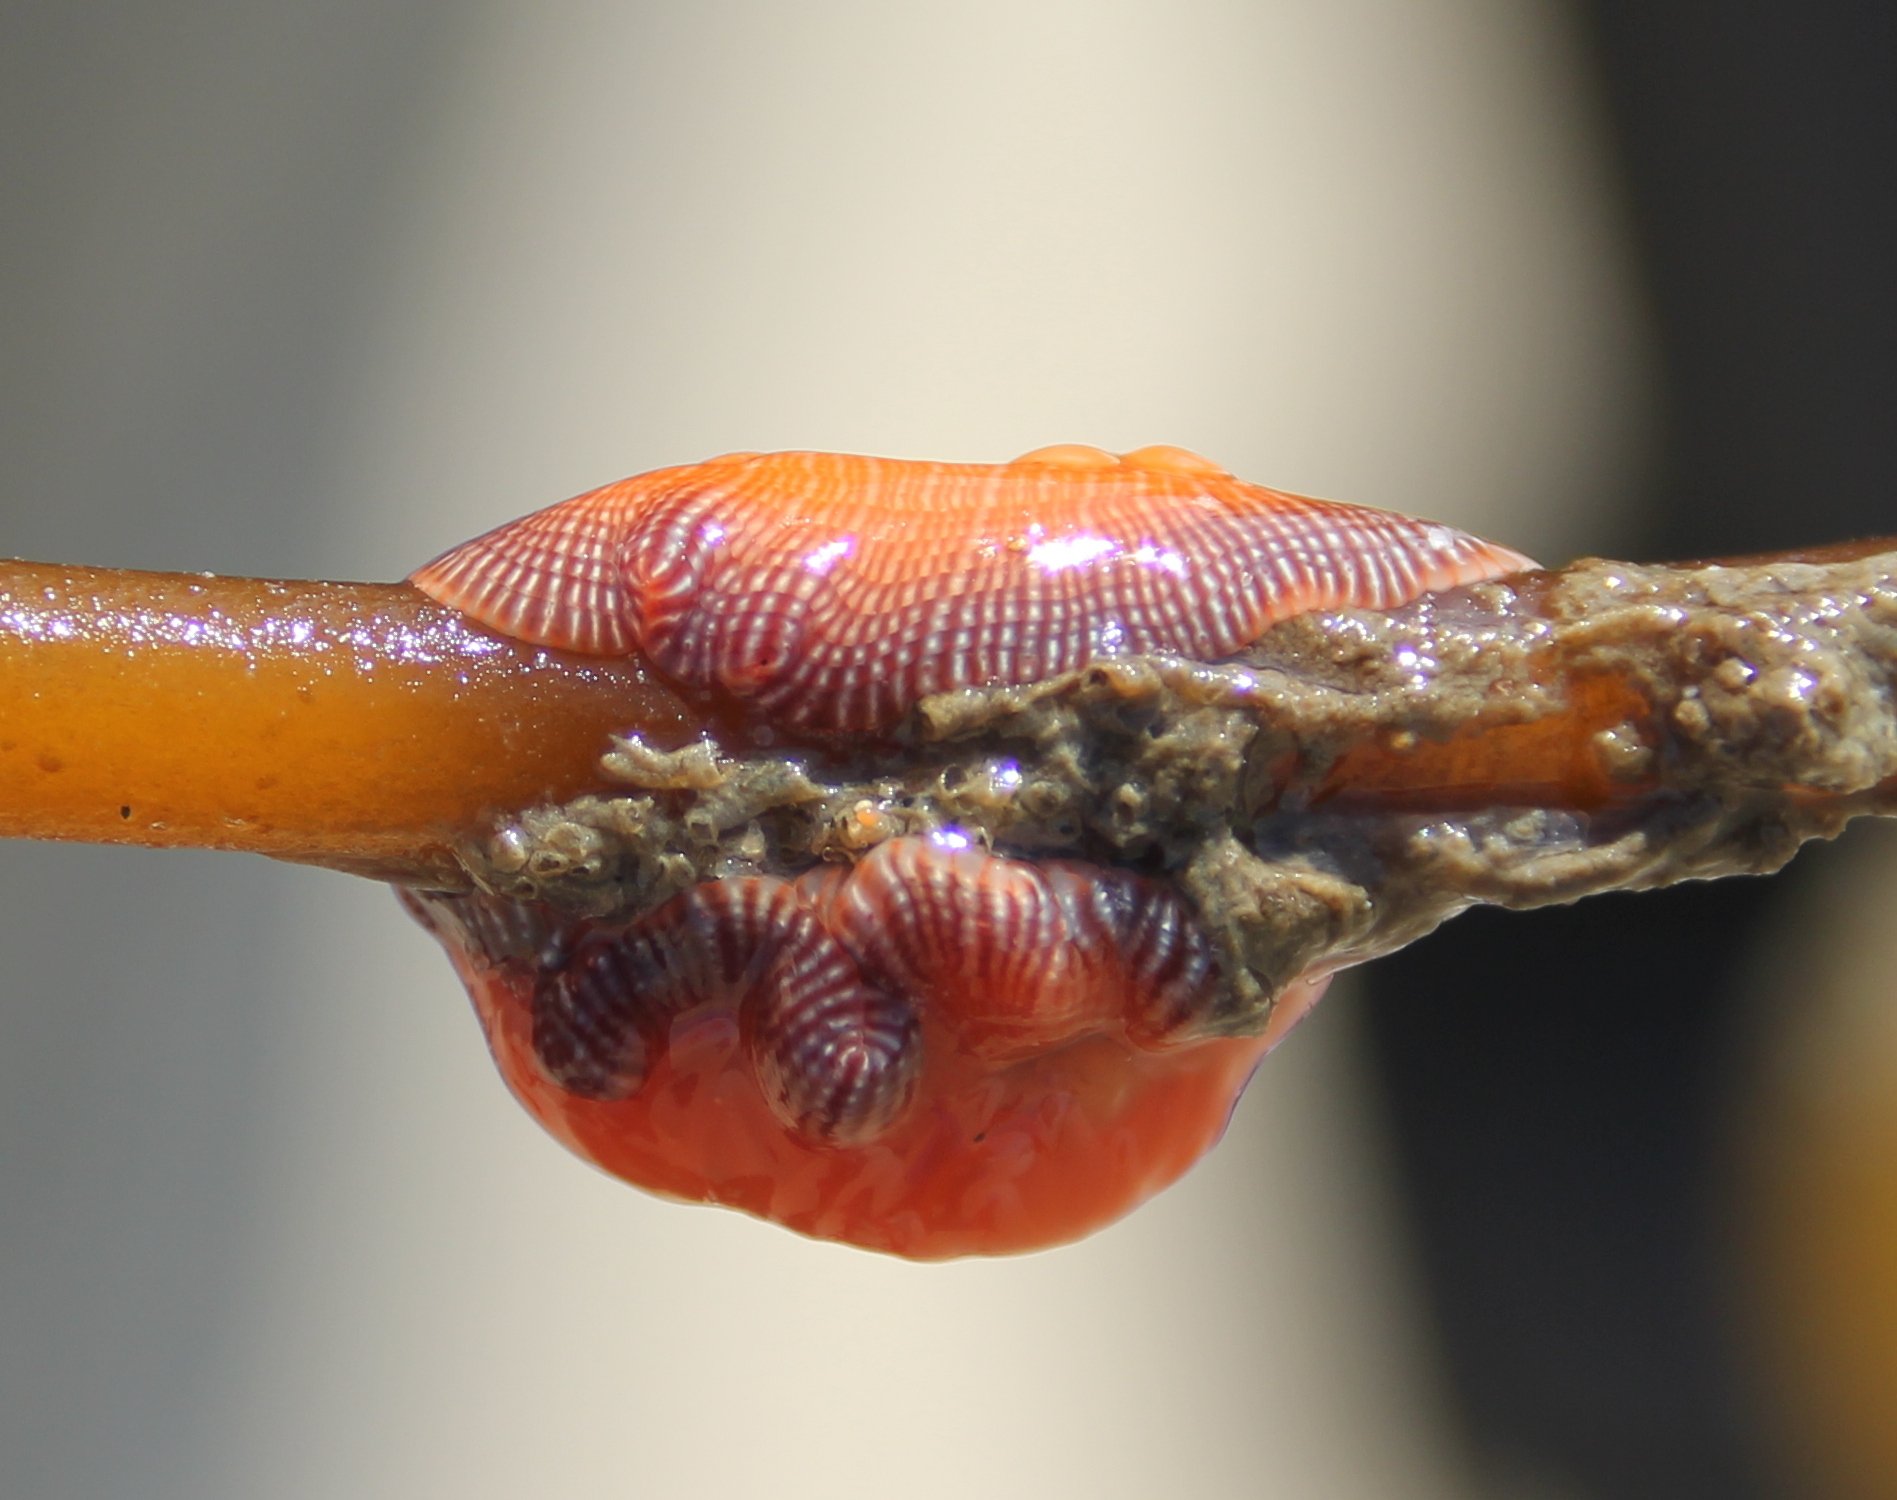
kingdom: Animalia
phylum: Cnidaria
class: Anthozoa
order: Actiniaria
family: Actiniidae
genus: Epiactis
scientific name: Epiactis prolifera
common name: Brooding anemone
